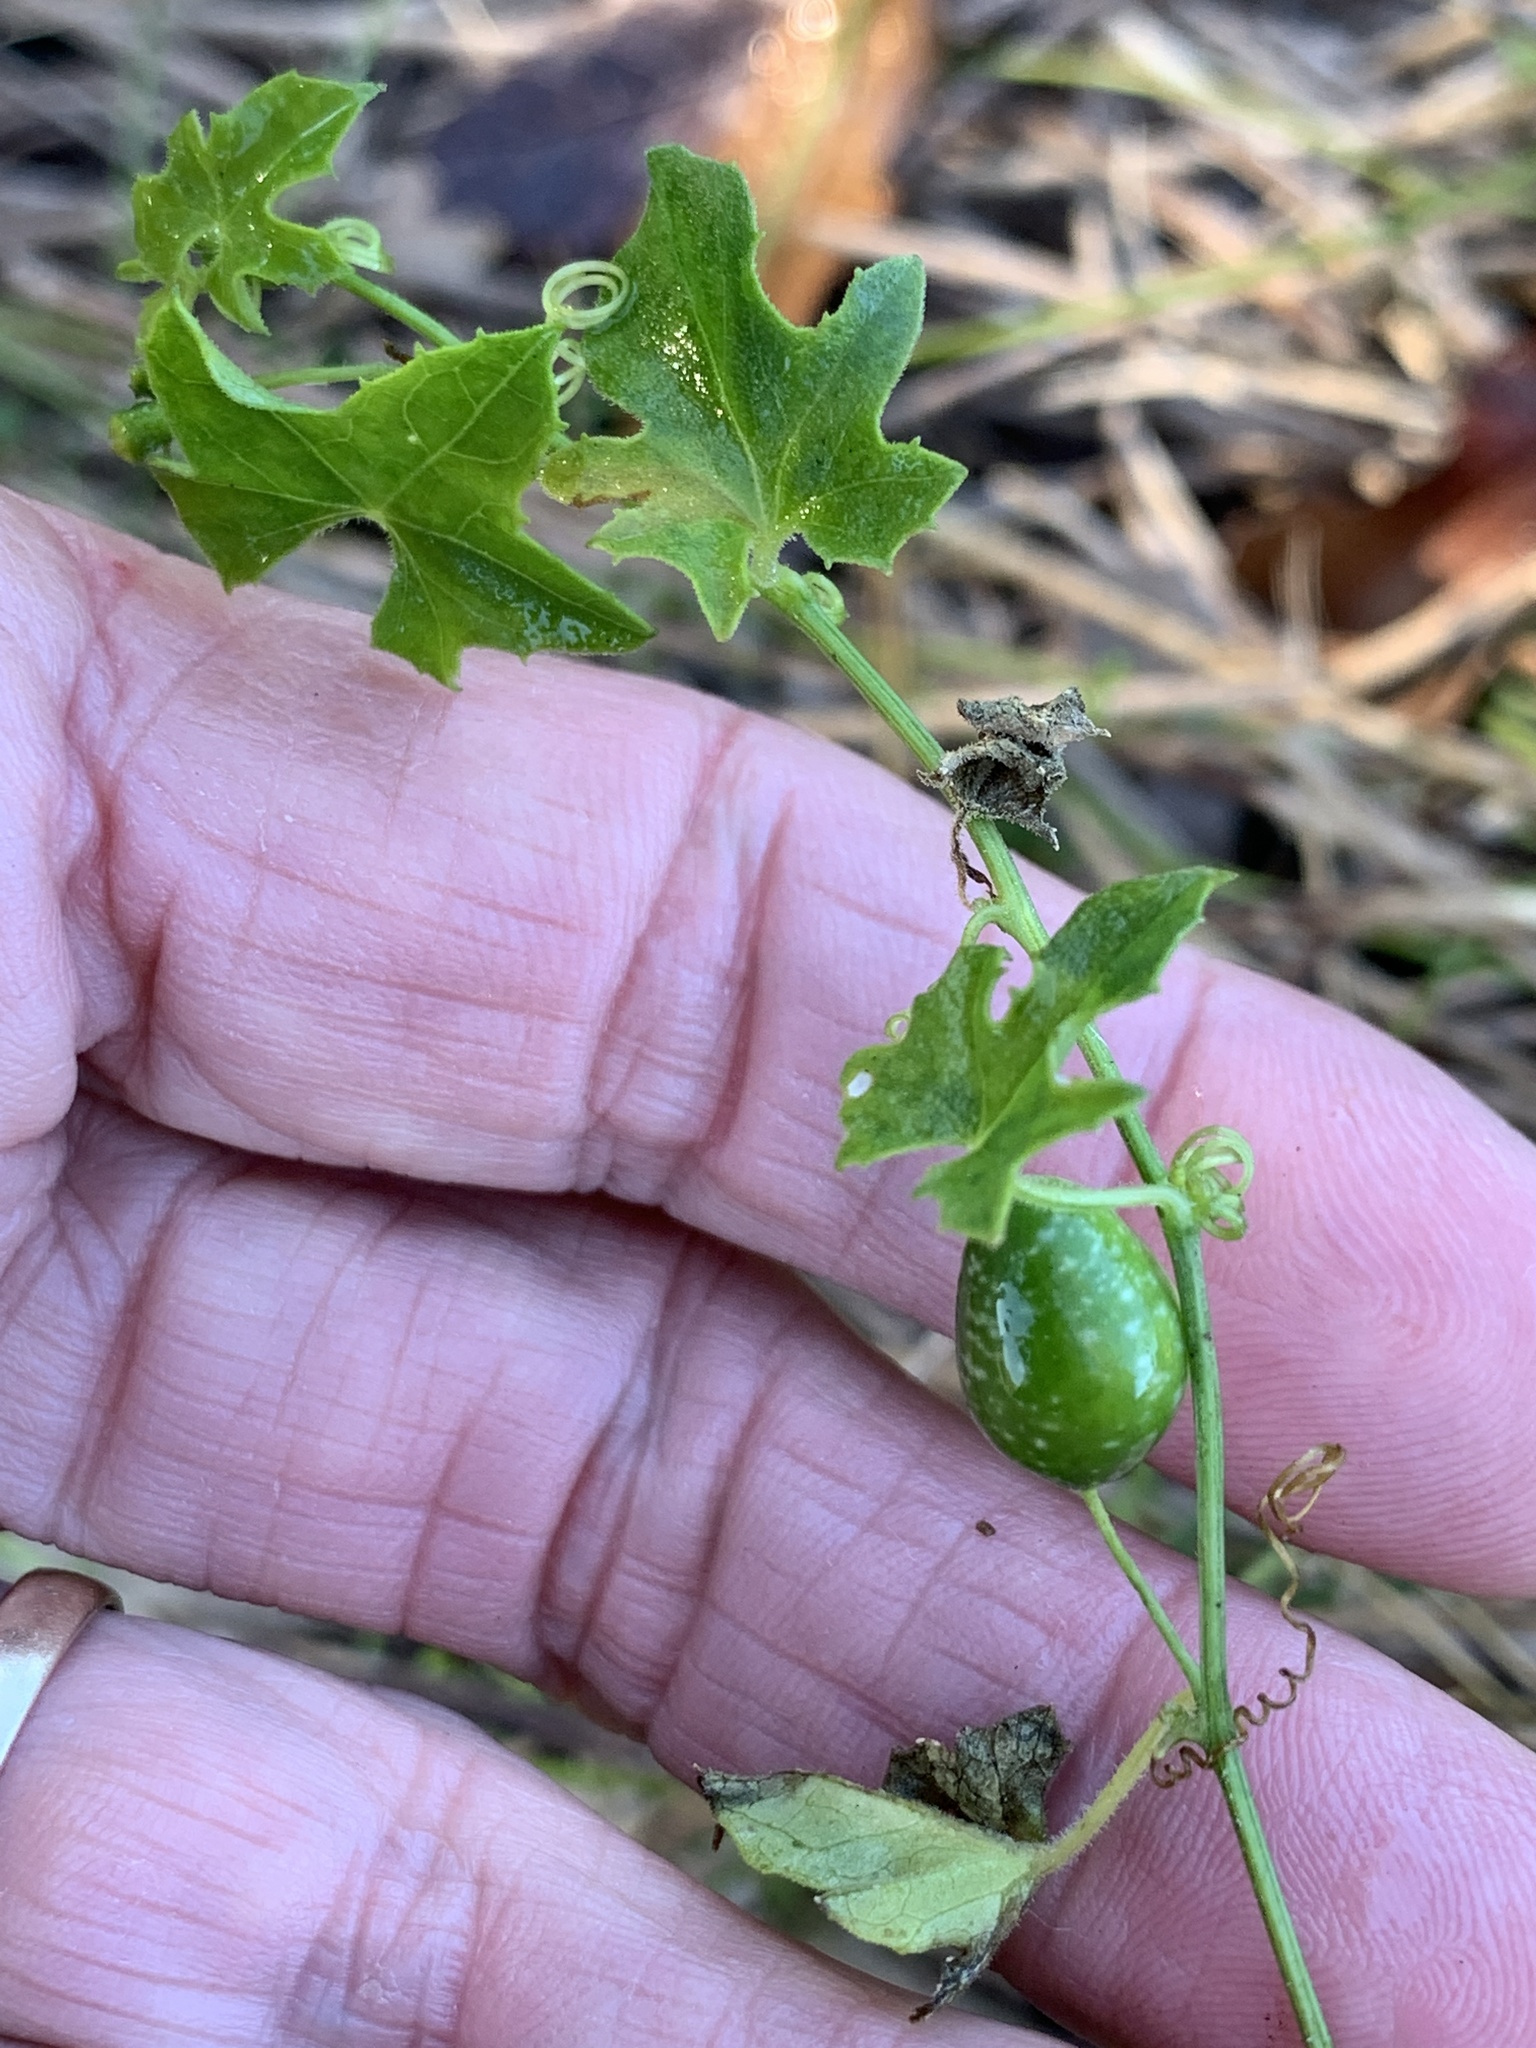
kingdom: Plantae
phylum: Tracheophyta
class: Magnoliopsida
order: Cucurbitales
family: Cucurbitaceae
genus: Melothria
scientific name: Melothria pendula
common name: Creeping-cucumber
